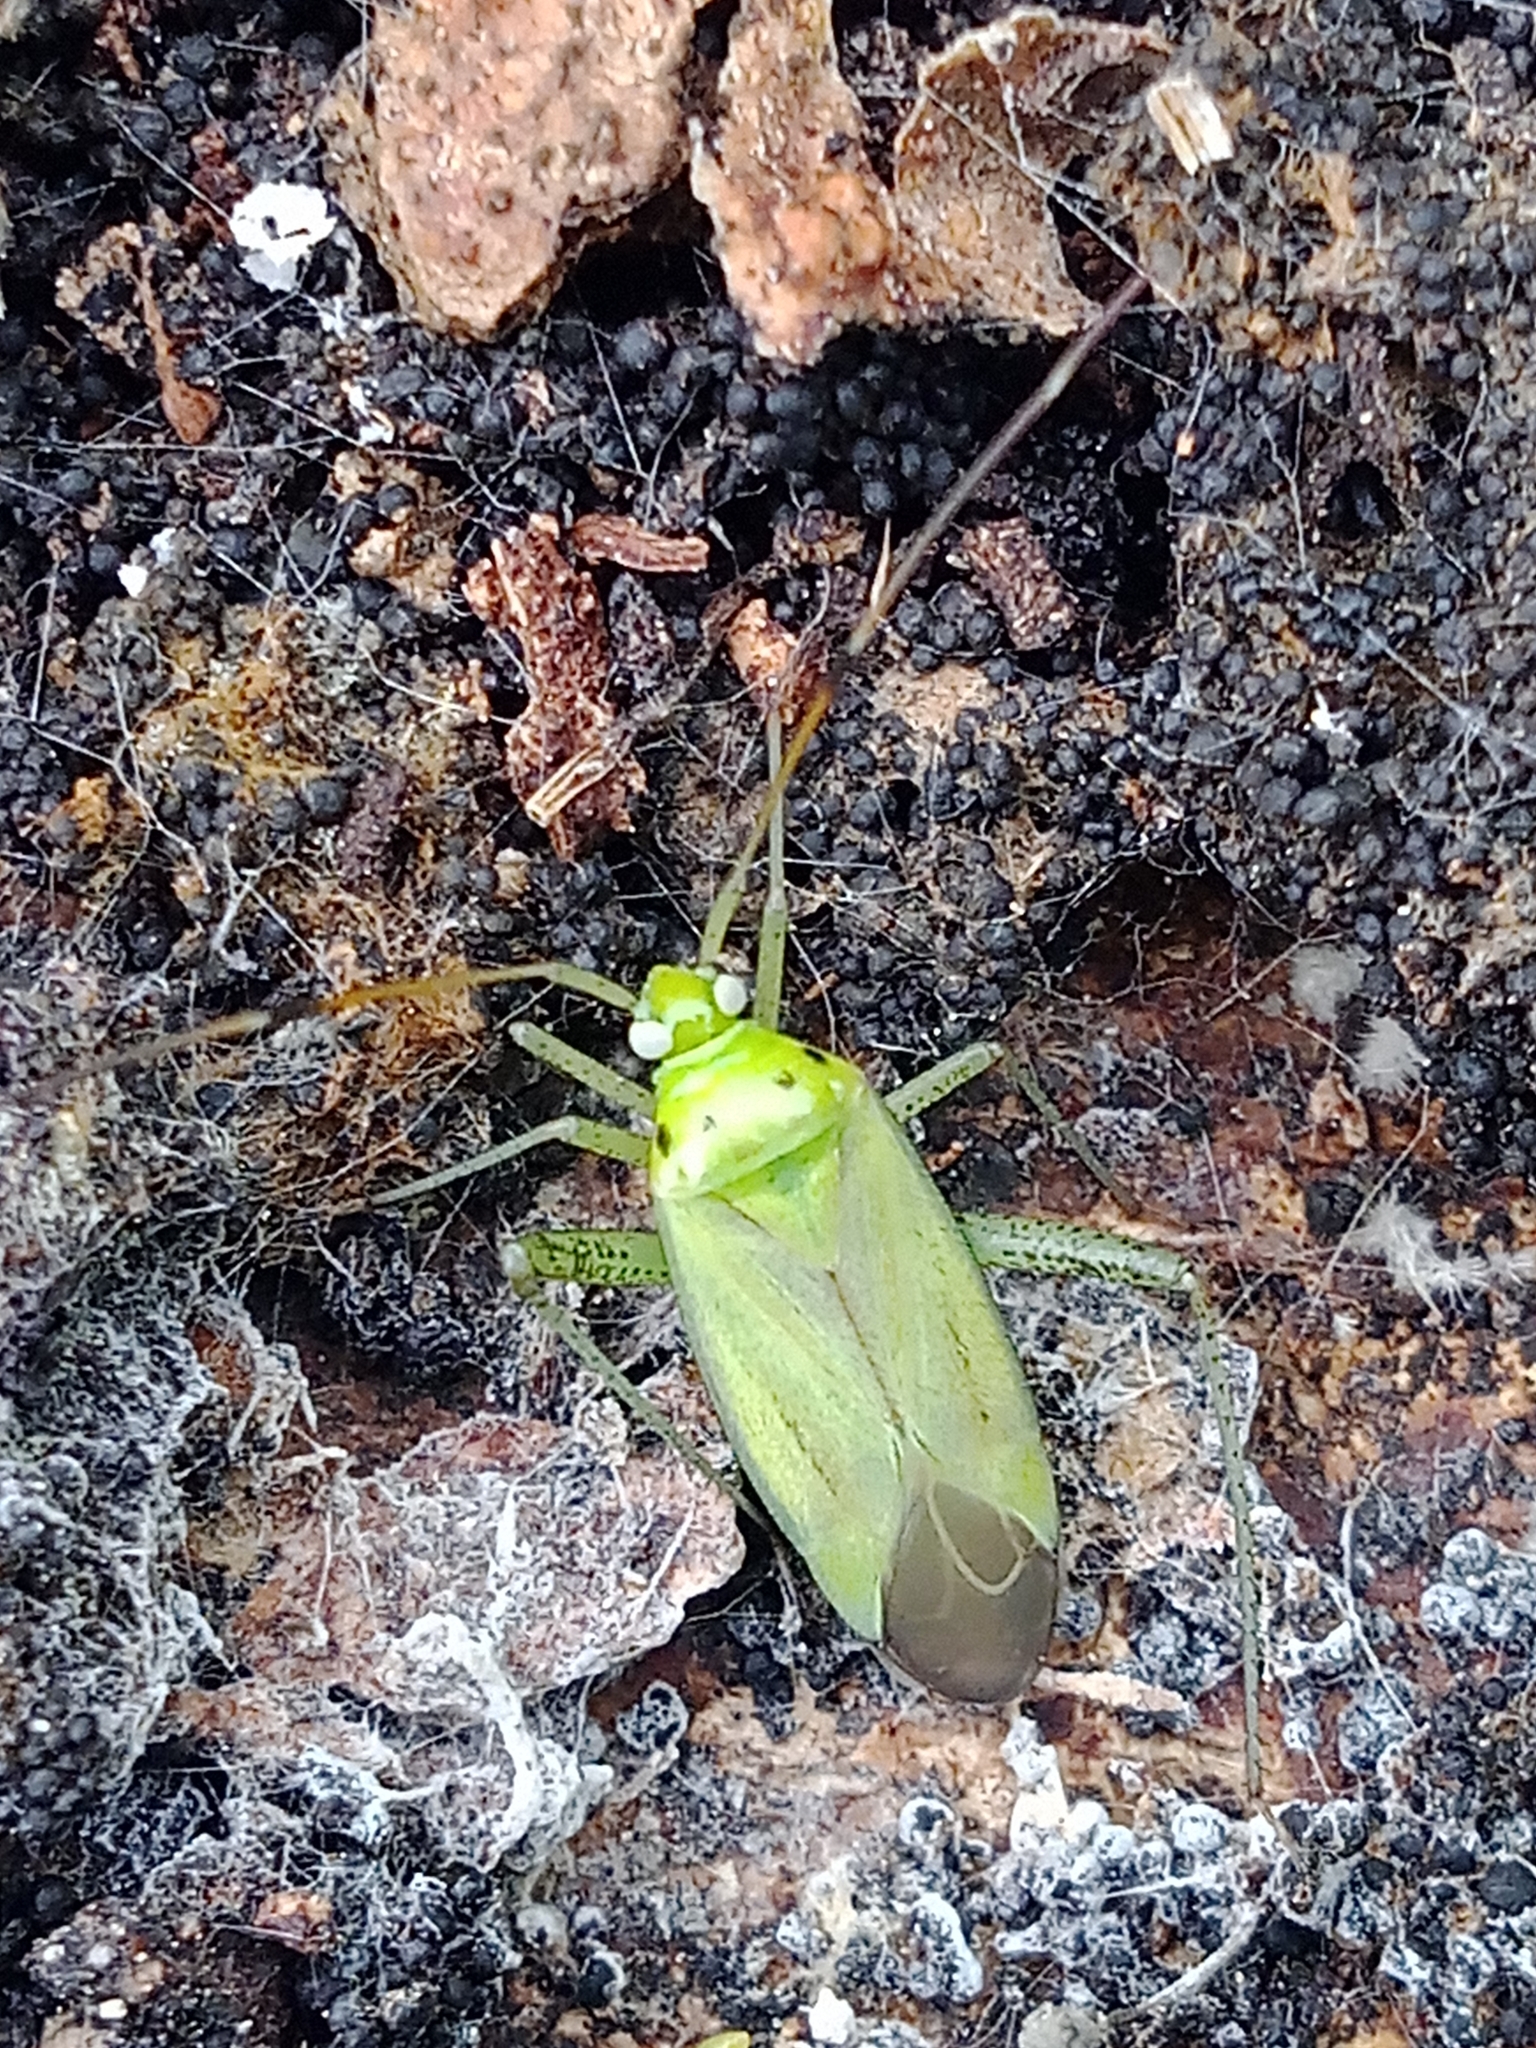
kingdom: Animalia
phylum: Arthropoda
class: Insecta
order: Hemiptera
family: Miridae
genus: Adelphocoris
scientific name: Adelphocoris quadripunctatus
